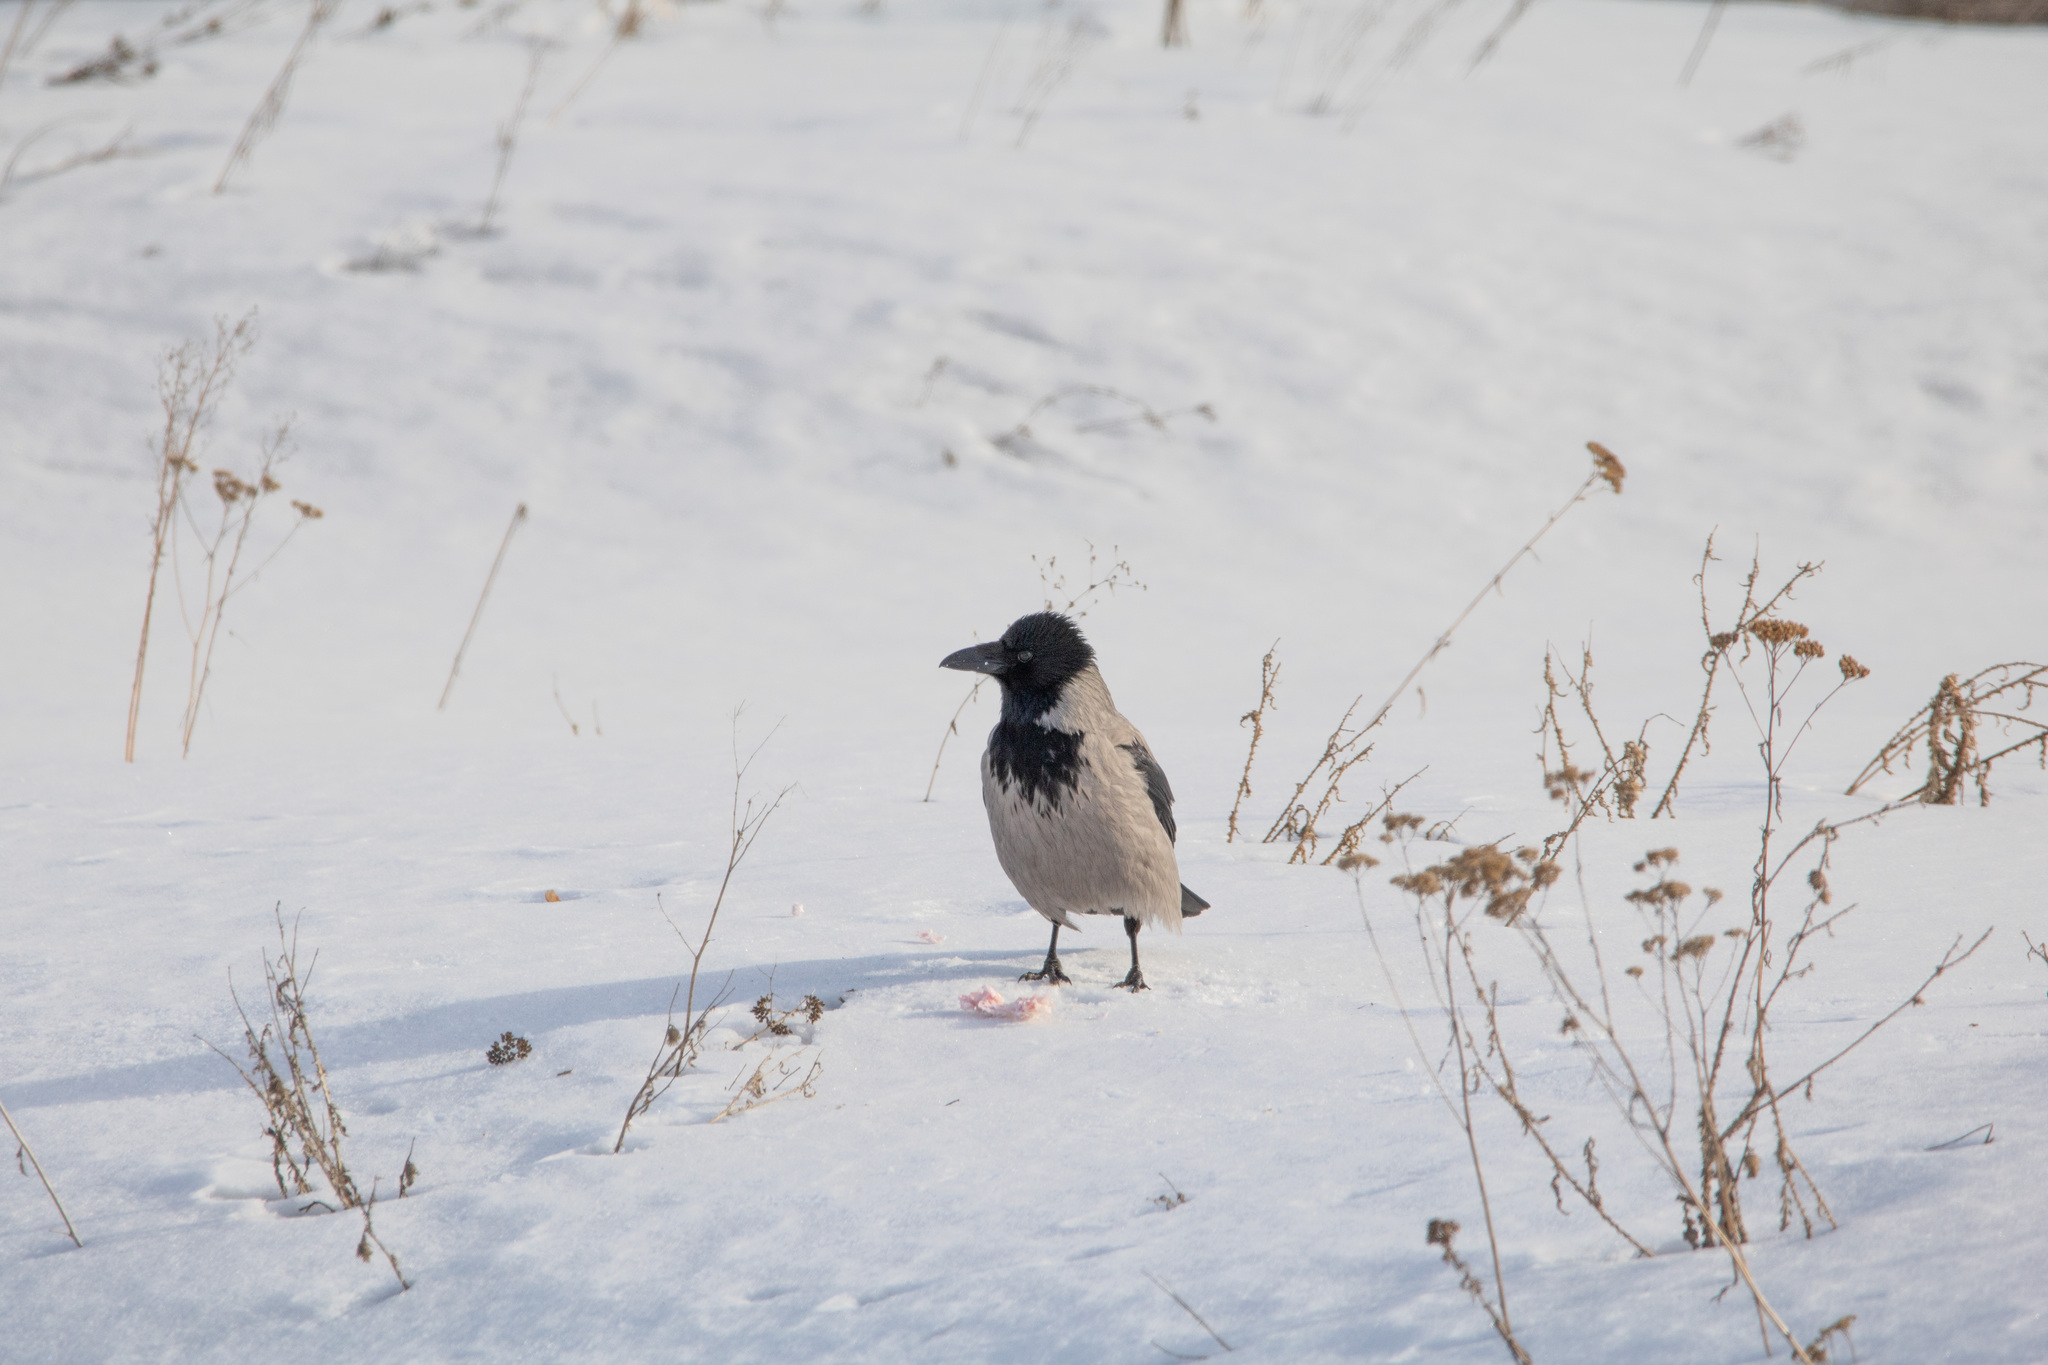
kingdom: Animalia
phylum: Chordata
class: Aves
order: Passeriformes
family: Corvidae
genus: Corvus
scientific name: Corvus cornix
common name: Hooded crow
